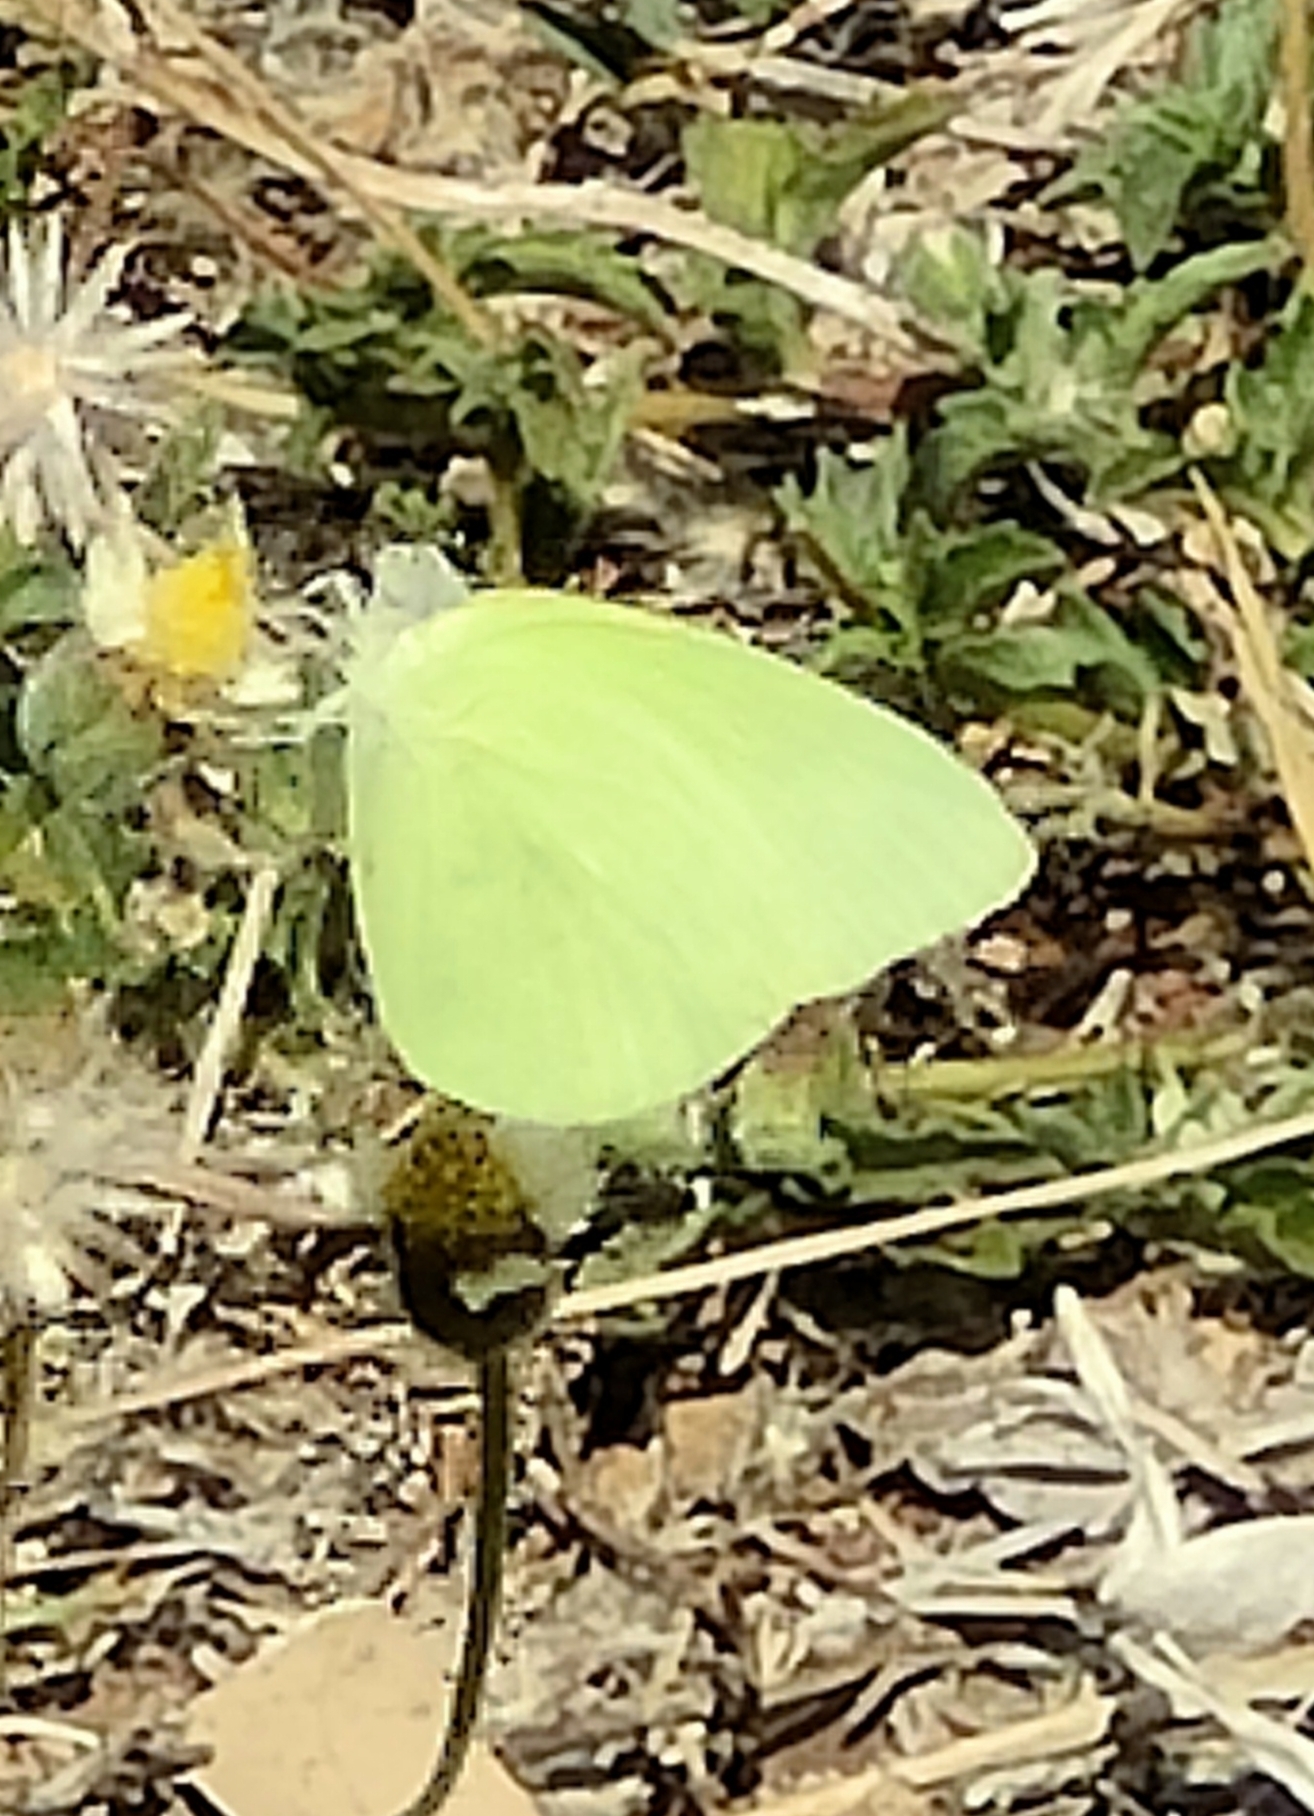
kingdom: Animalia
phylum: Arthropoda
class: Insecta
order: Lepidoptera
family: Pieridae
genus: Catopsilia
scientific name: Catopsilia pomona
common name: Common emigrant
